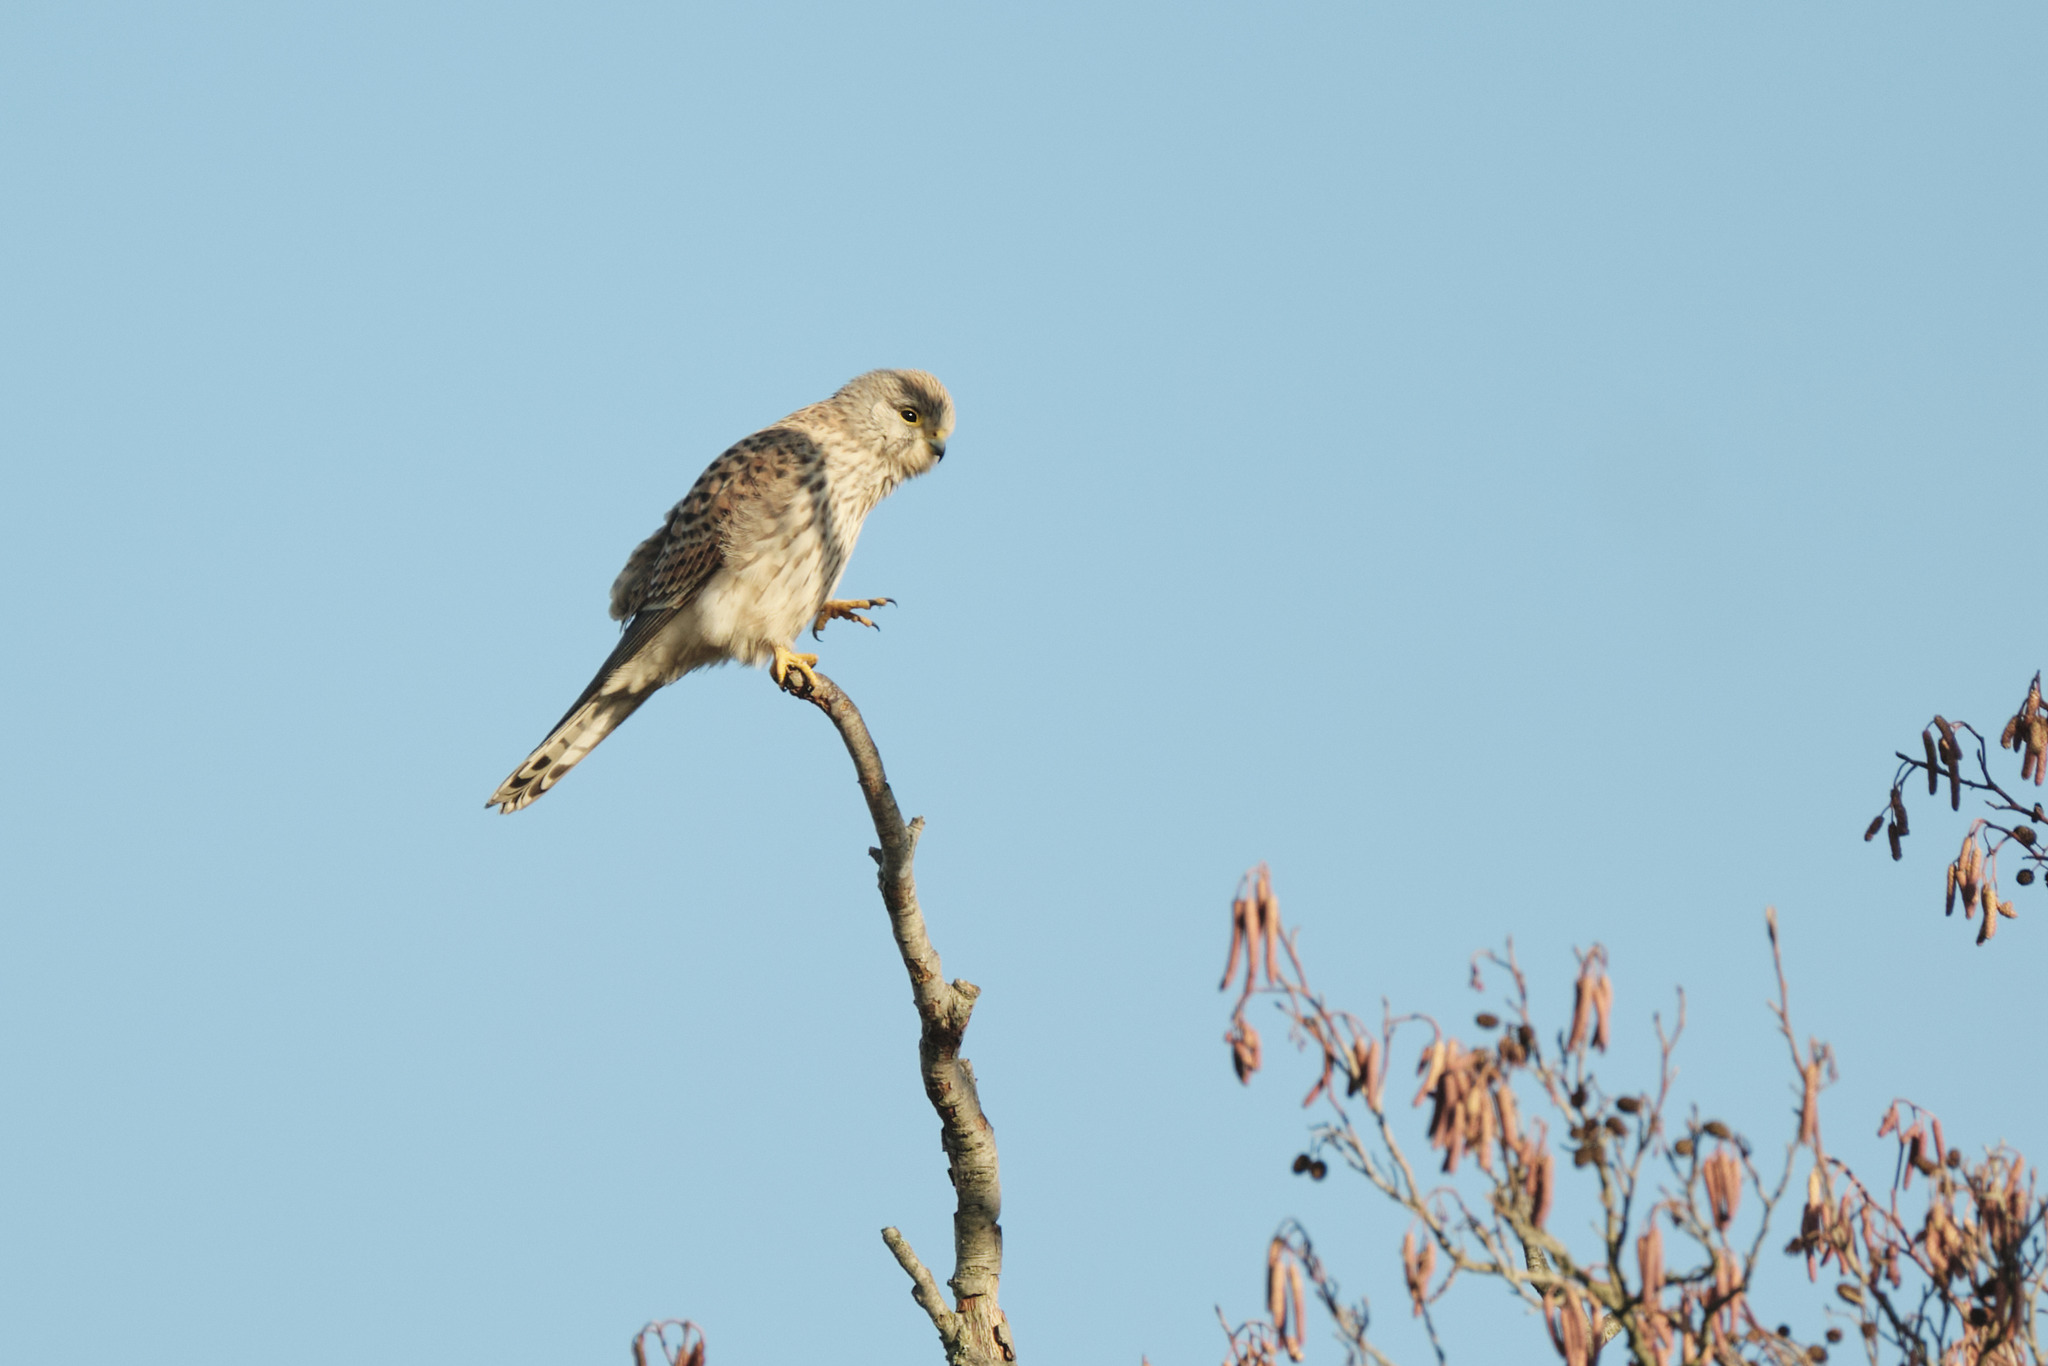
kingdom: Animalia
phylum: Chordata
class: Aves
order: Falconiformes
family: Falconidae
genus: Falco
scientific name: Falco tinnunculus
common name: Common kestrel
